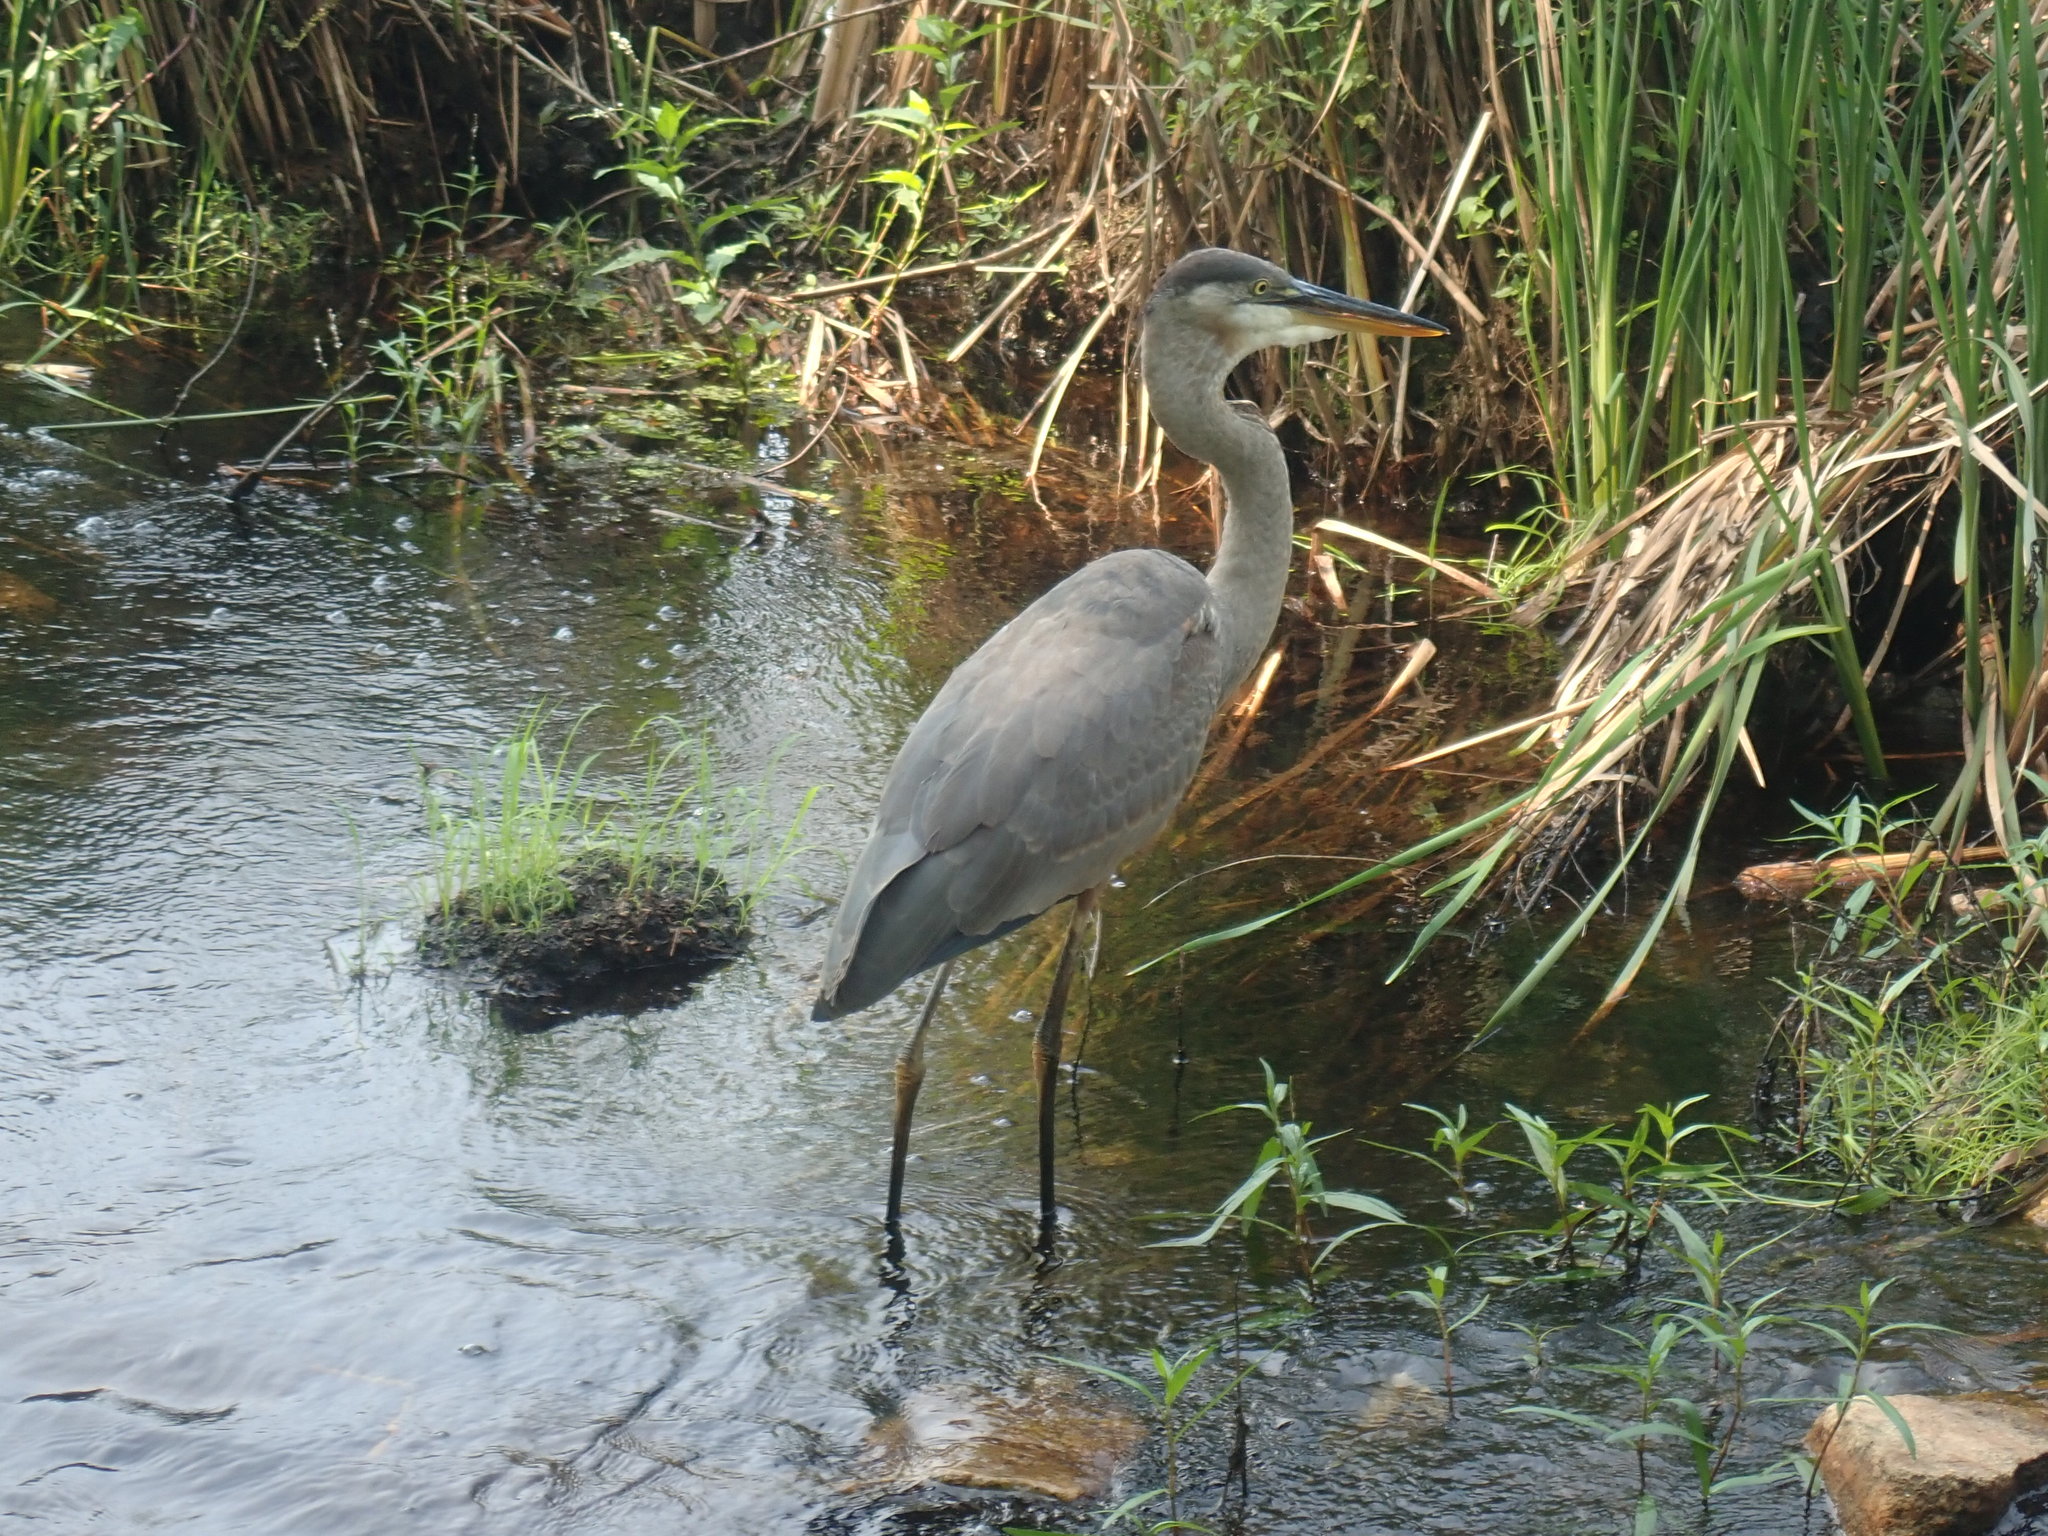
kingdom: Animalia
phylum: Chordata
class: Aves
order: Pelecaniformes
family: Ardeidae
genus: Ardea
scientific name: Ardea herodias
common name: Great blue heron
